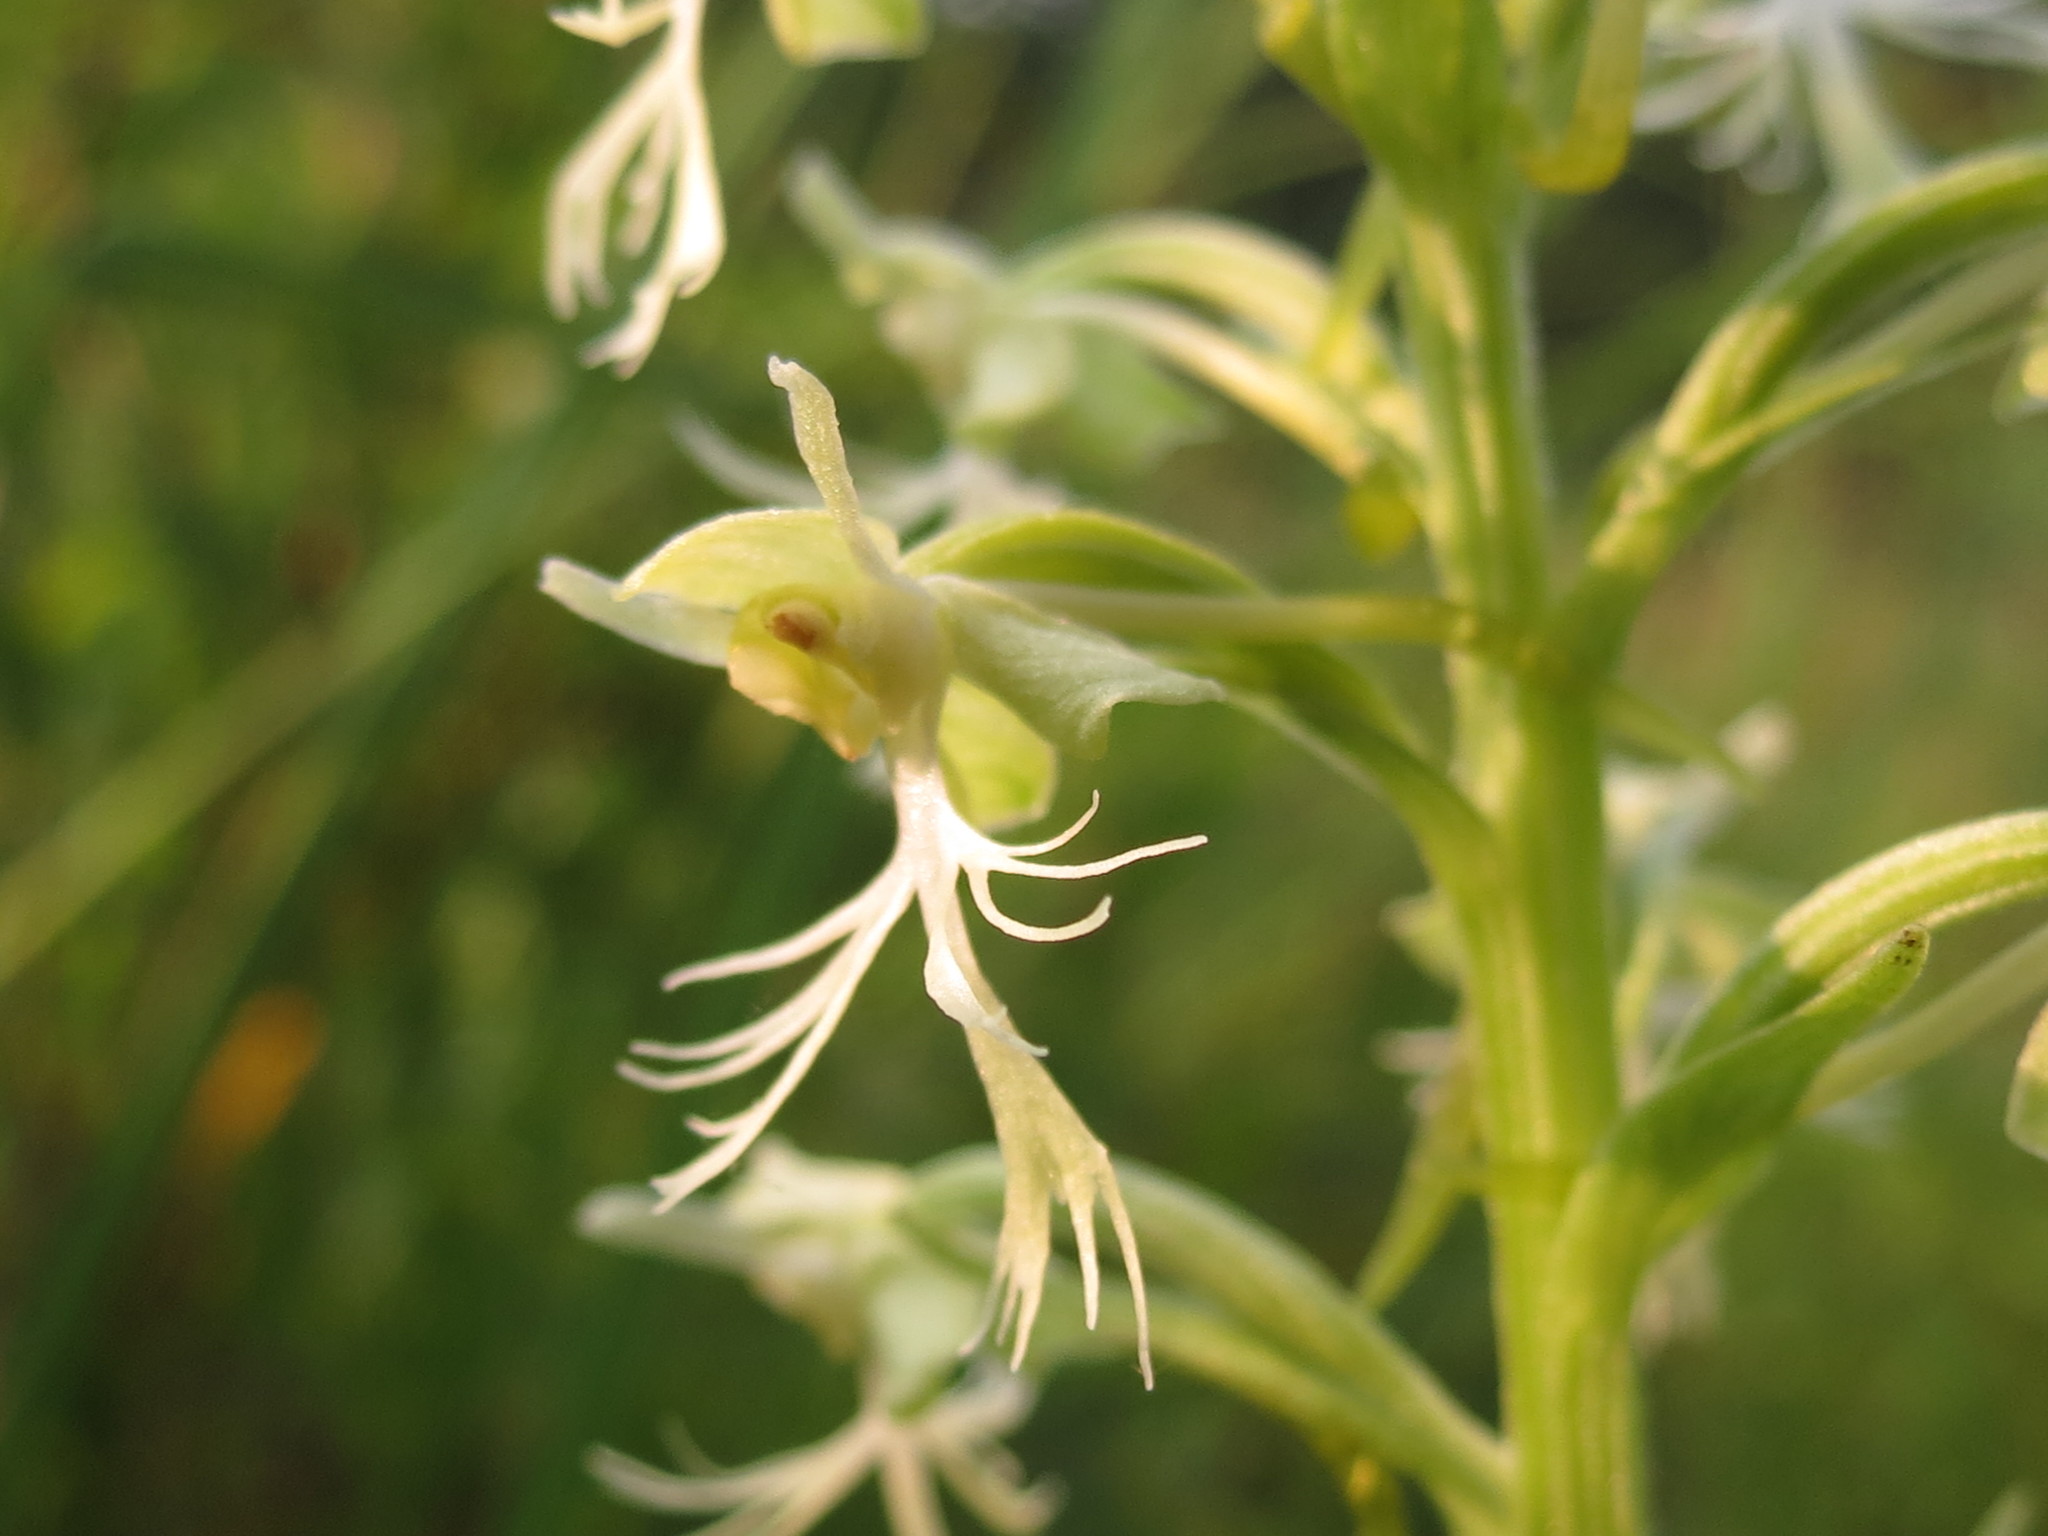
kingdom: Plantae
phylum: Tracheophyta
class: Liliopsida
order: Asparagales
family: Orchidaceae
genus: Platanthera
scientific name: Platanthera lacera
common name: Green fringed orchid
